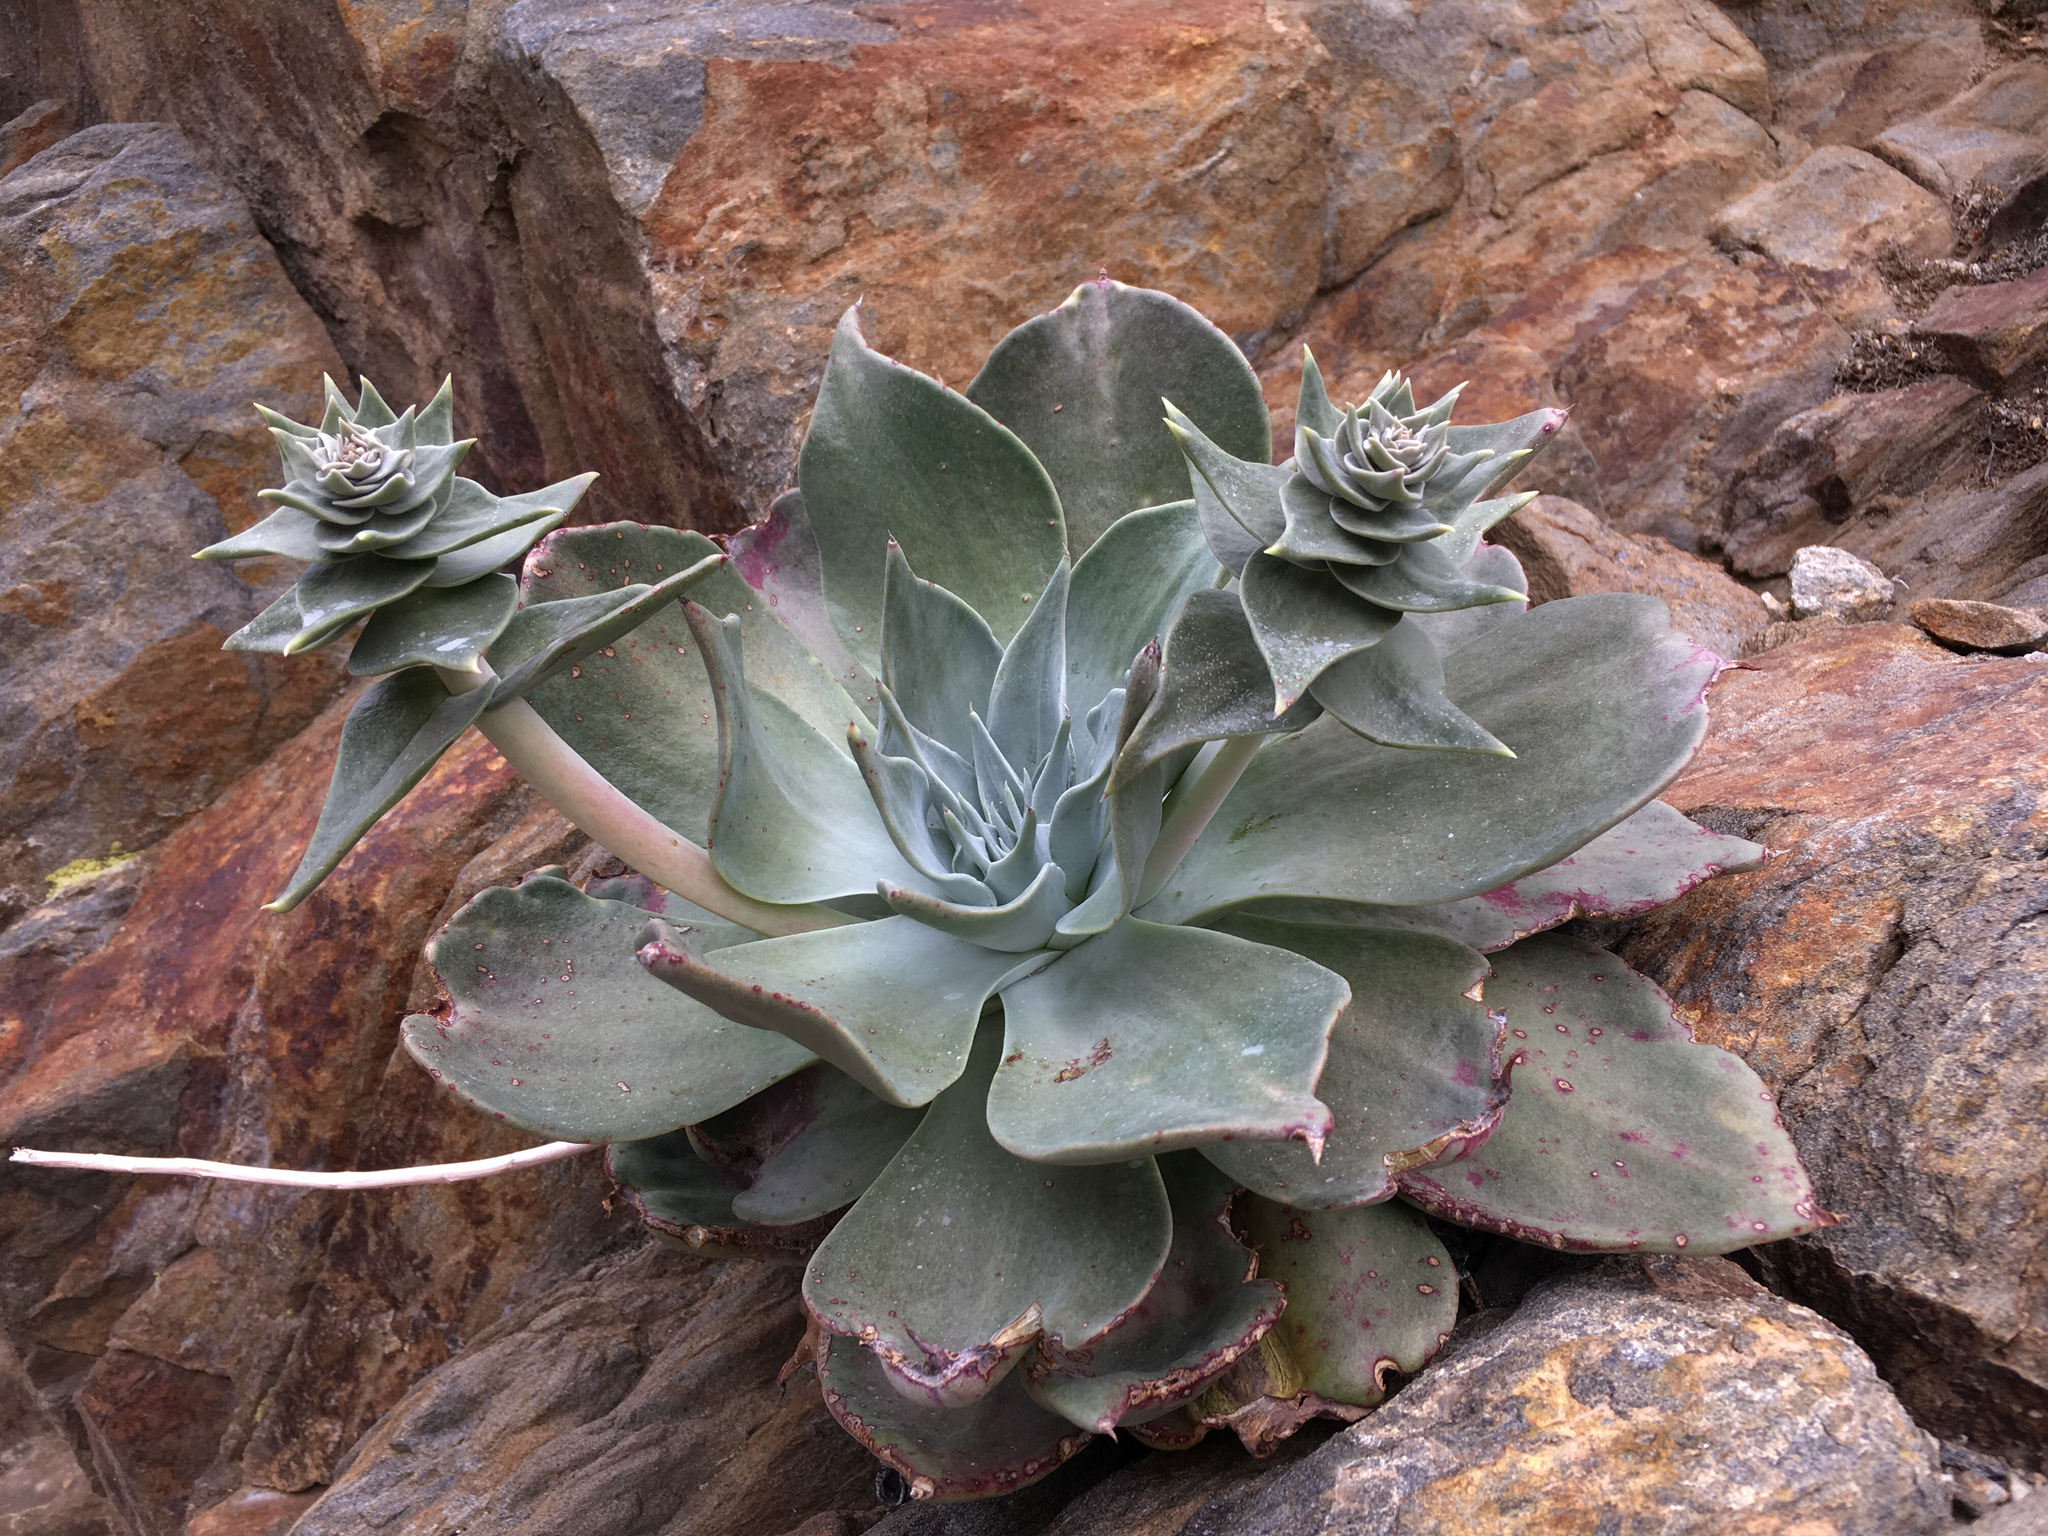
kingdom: Plantae
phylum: Tracheophyta
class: Magnoliopsida
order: Saxifragales
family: Crassulaceae
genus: Dudleya
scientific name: Dudleya arizonica
